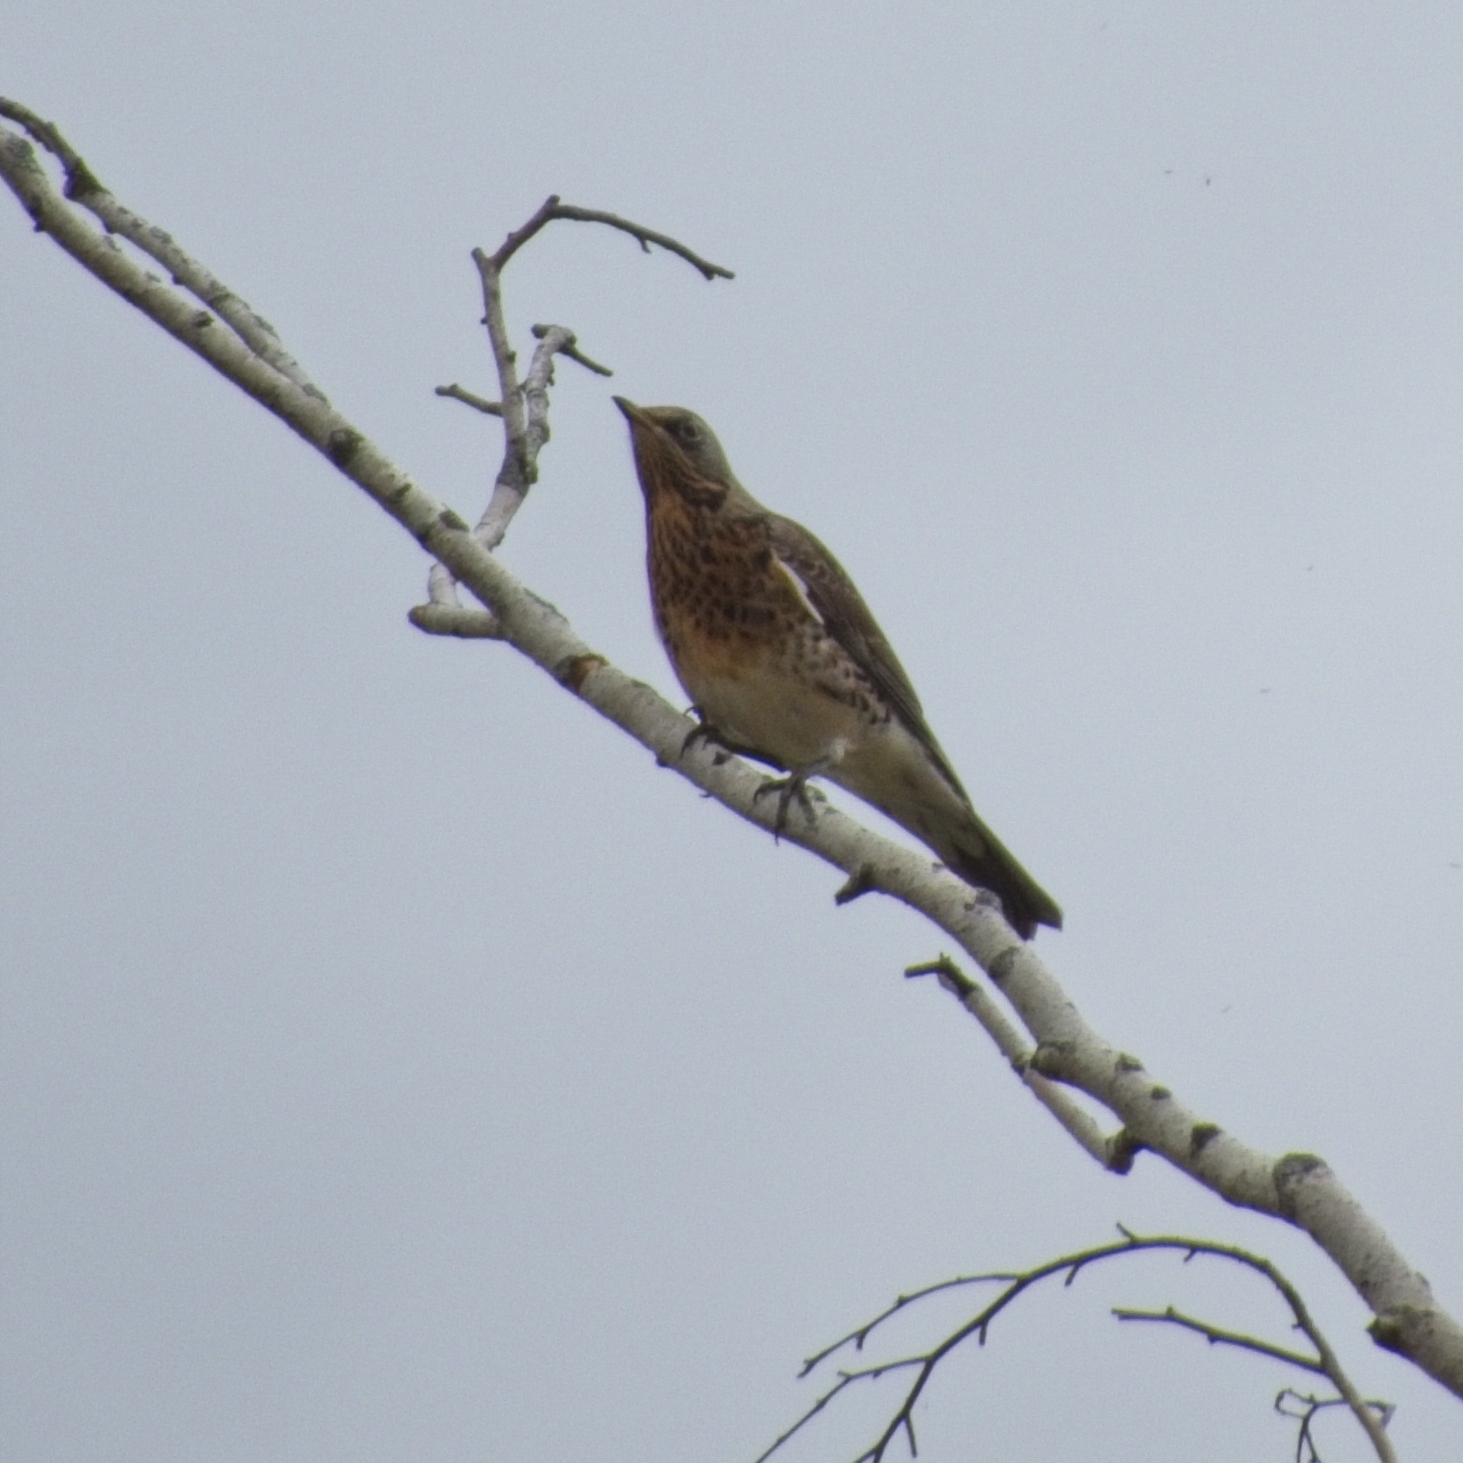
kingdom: Animalia
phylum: Chordata
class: Aves
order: Passeriformes
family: Turdidae
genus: Turdus
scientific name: Turdus pilaris
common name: Fieldfare
